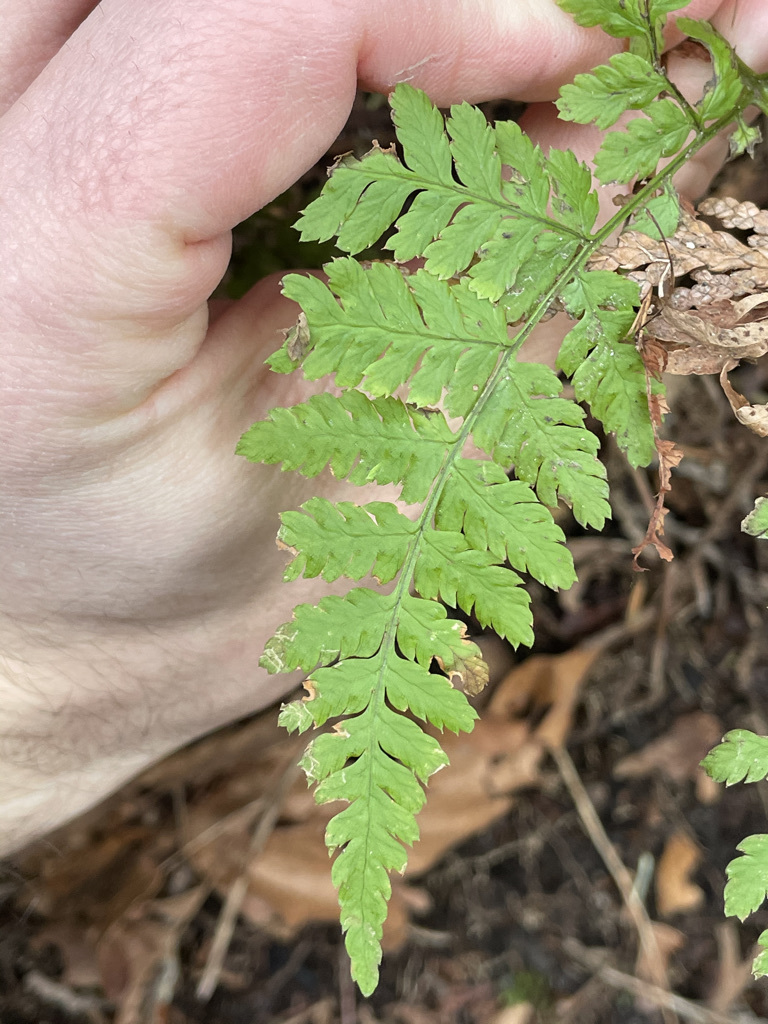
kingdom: Plantae
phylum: Tracheophyta
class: Polypodiopsida
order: Polypodiales
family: Dryopteridaceae
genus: Dryopteris
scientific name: Dryopteris expansa
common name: Northern buckler fern
